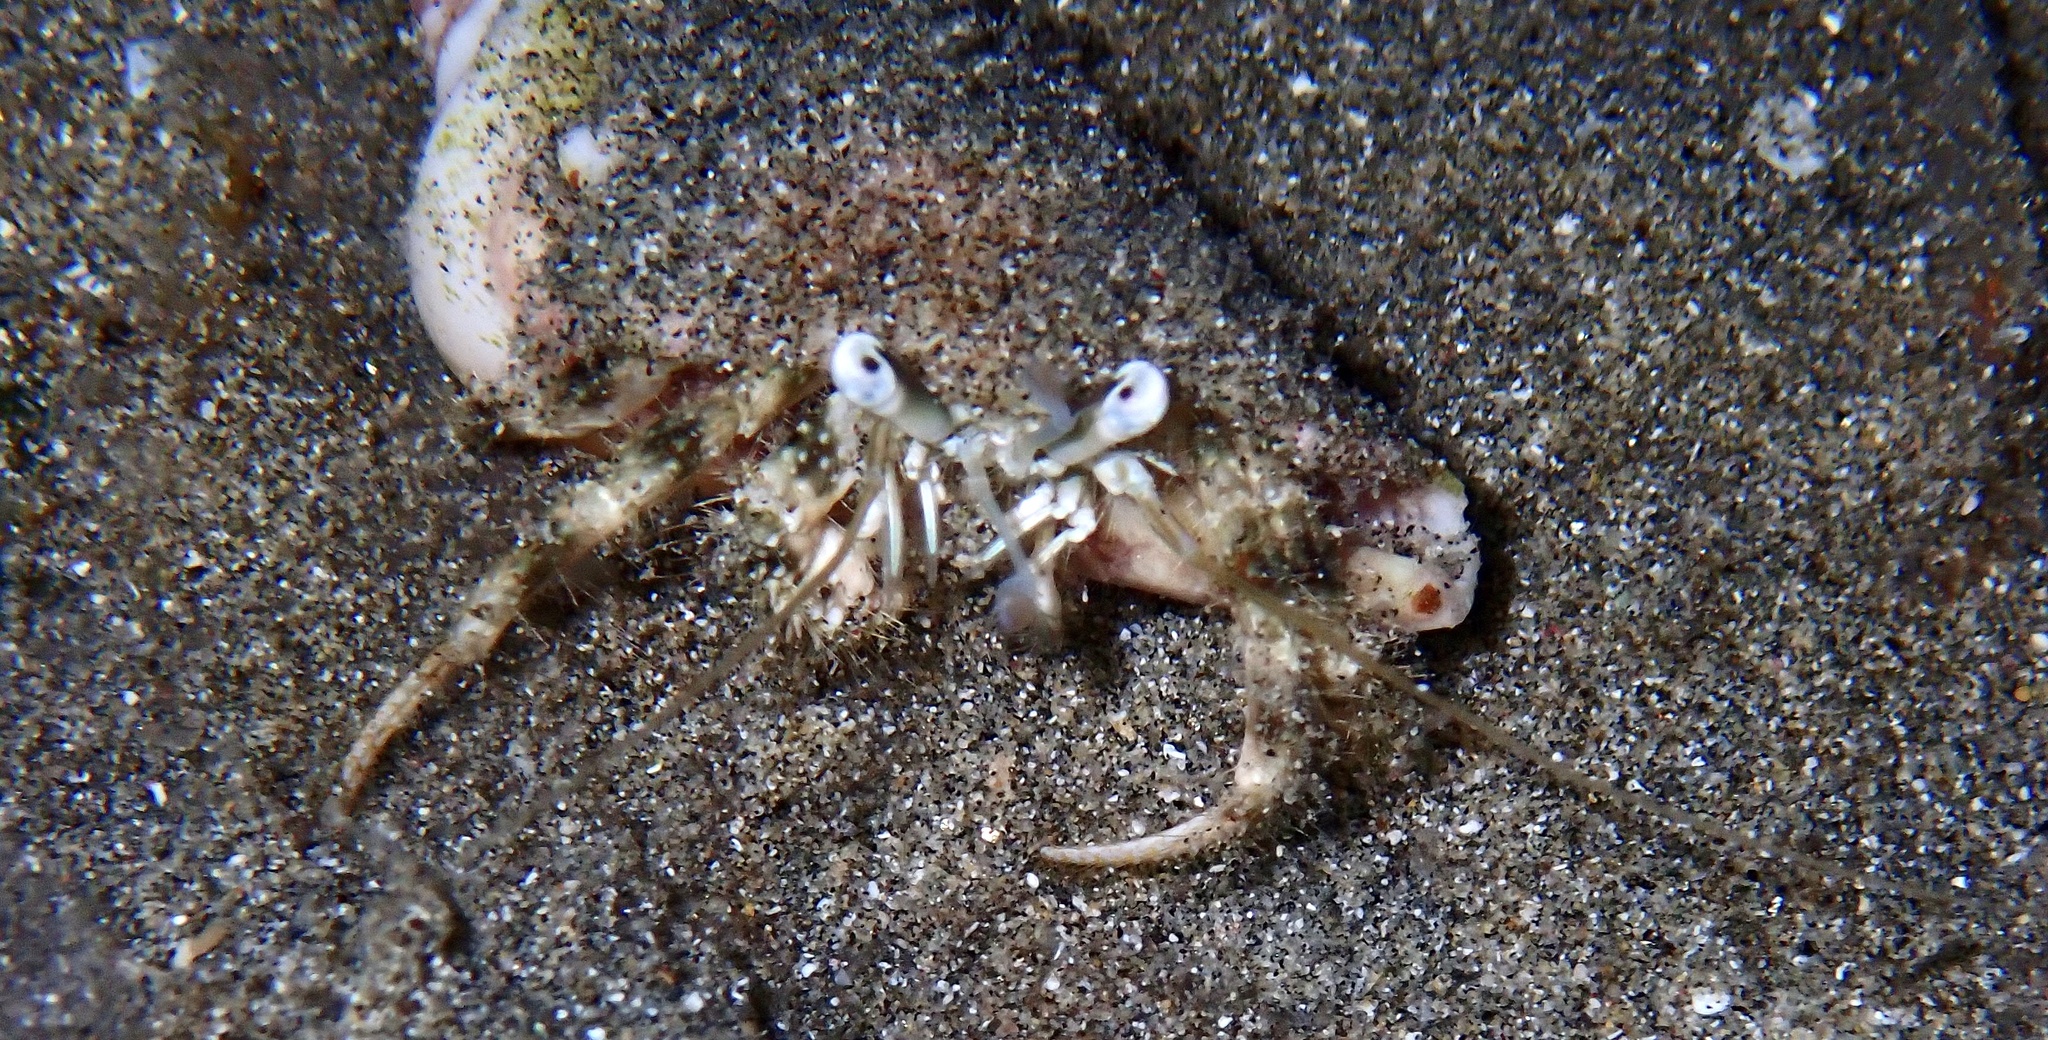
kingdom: Animalia
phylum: Arthropoda
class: Malacostraca
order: Decapoda
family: Diogenidae
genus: Dardanus
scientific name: Dardanus woodmasoni
